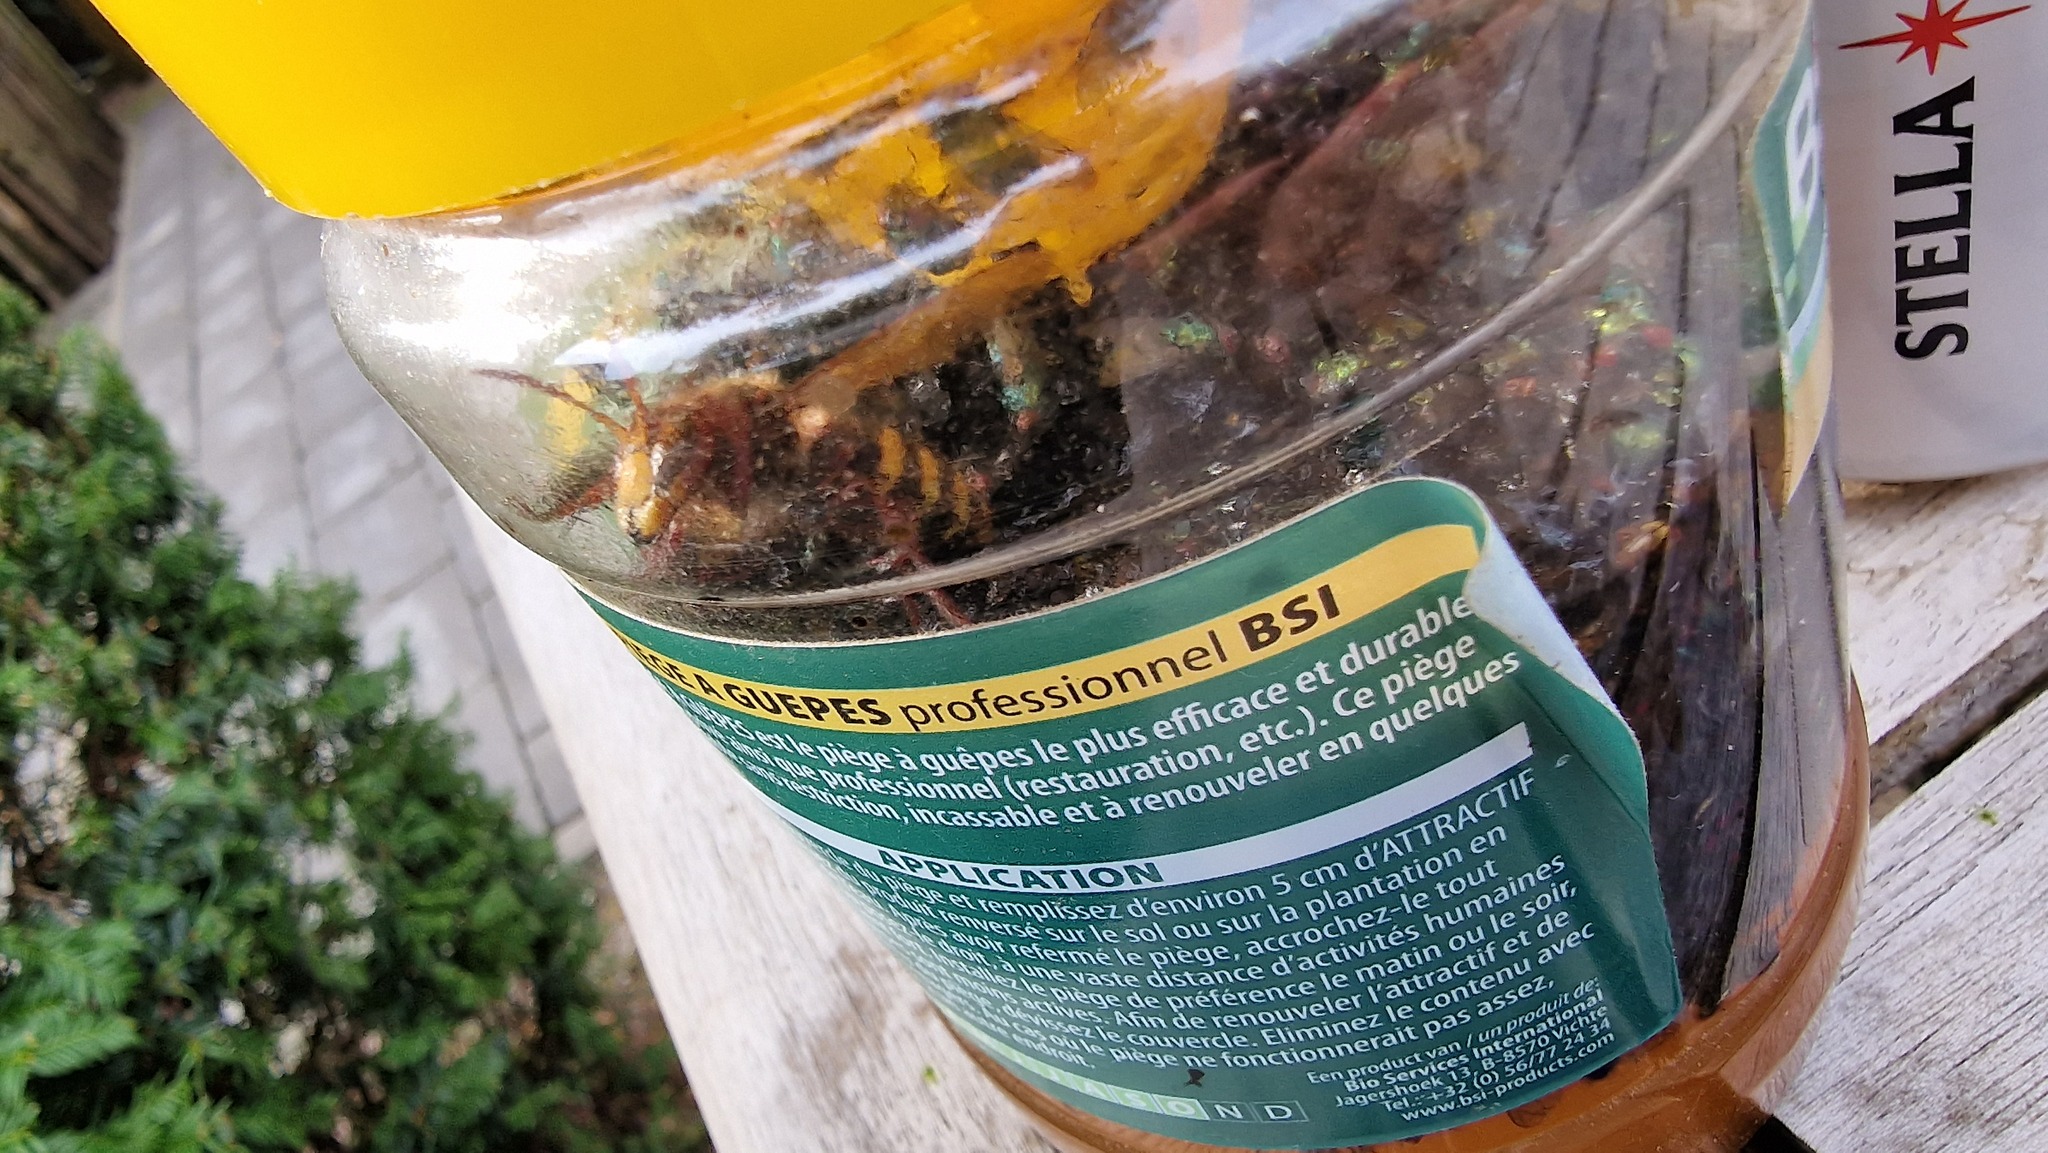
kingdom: Animalia
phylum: Arthropoda
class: Insecta
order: Hymenoptera
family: Vespidae
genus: Vespa
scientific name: Vespa crabro
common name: Hornet
